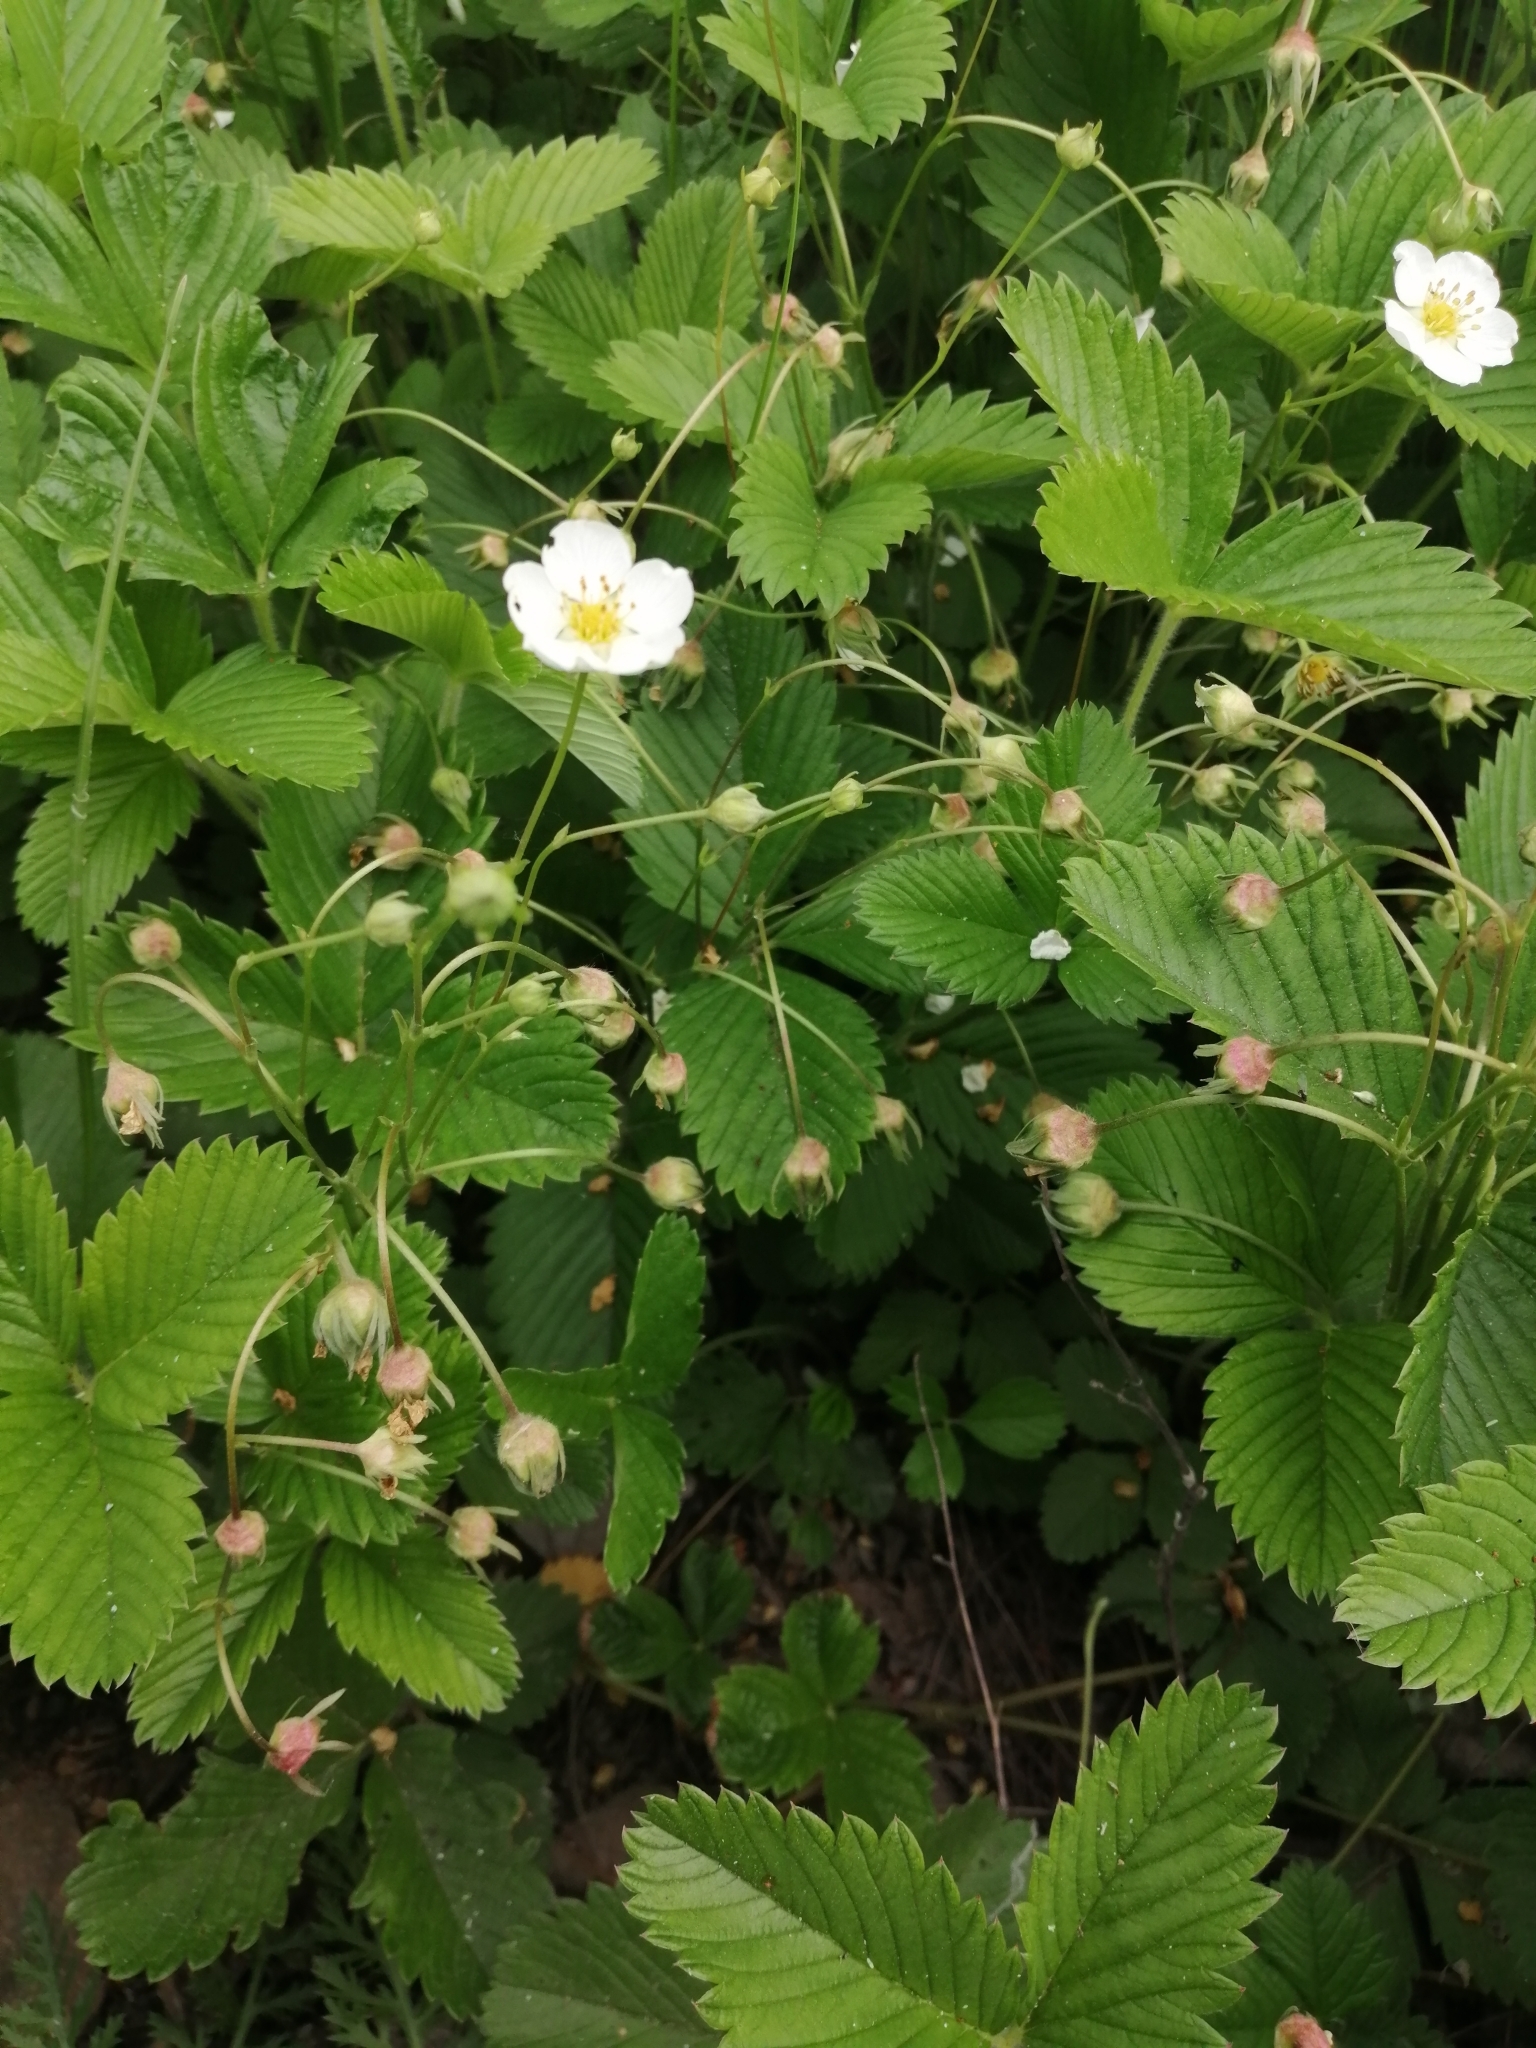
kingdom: Plantae
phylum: Tracheophyta
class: Magnoliopsida
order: Rosales
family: Rosaceae
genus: Fragaria
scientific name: Fragaria viridis
